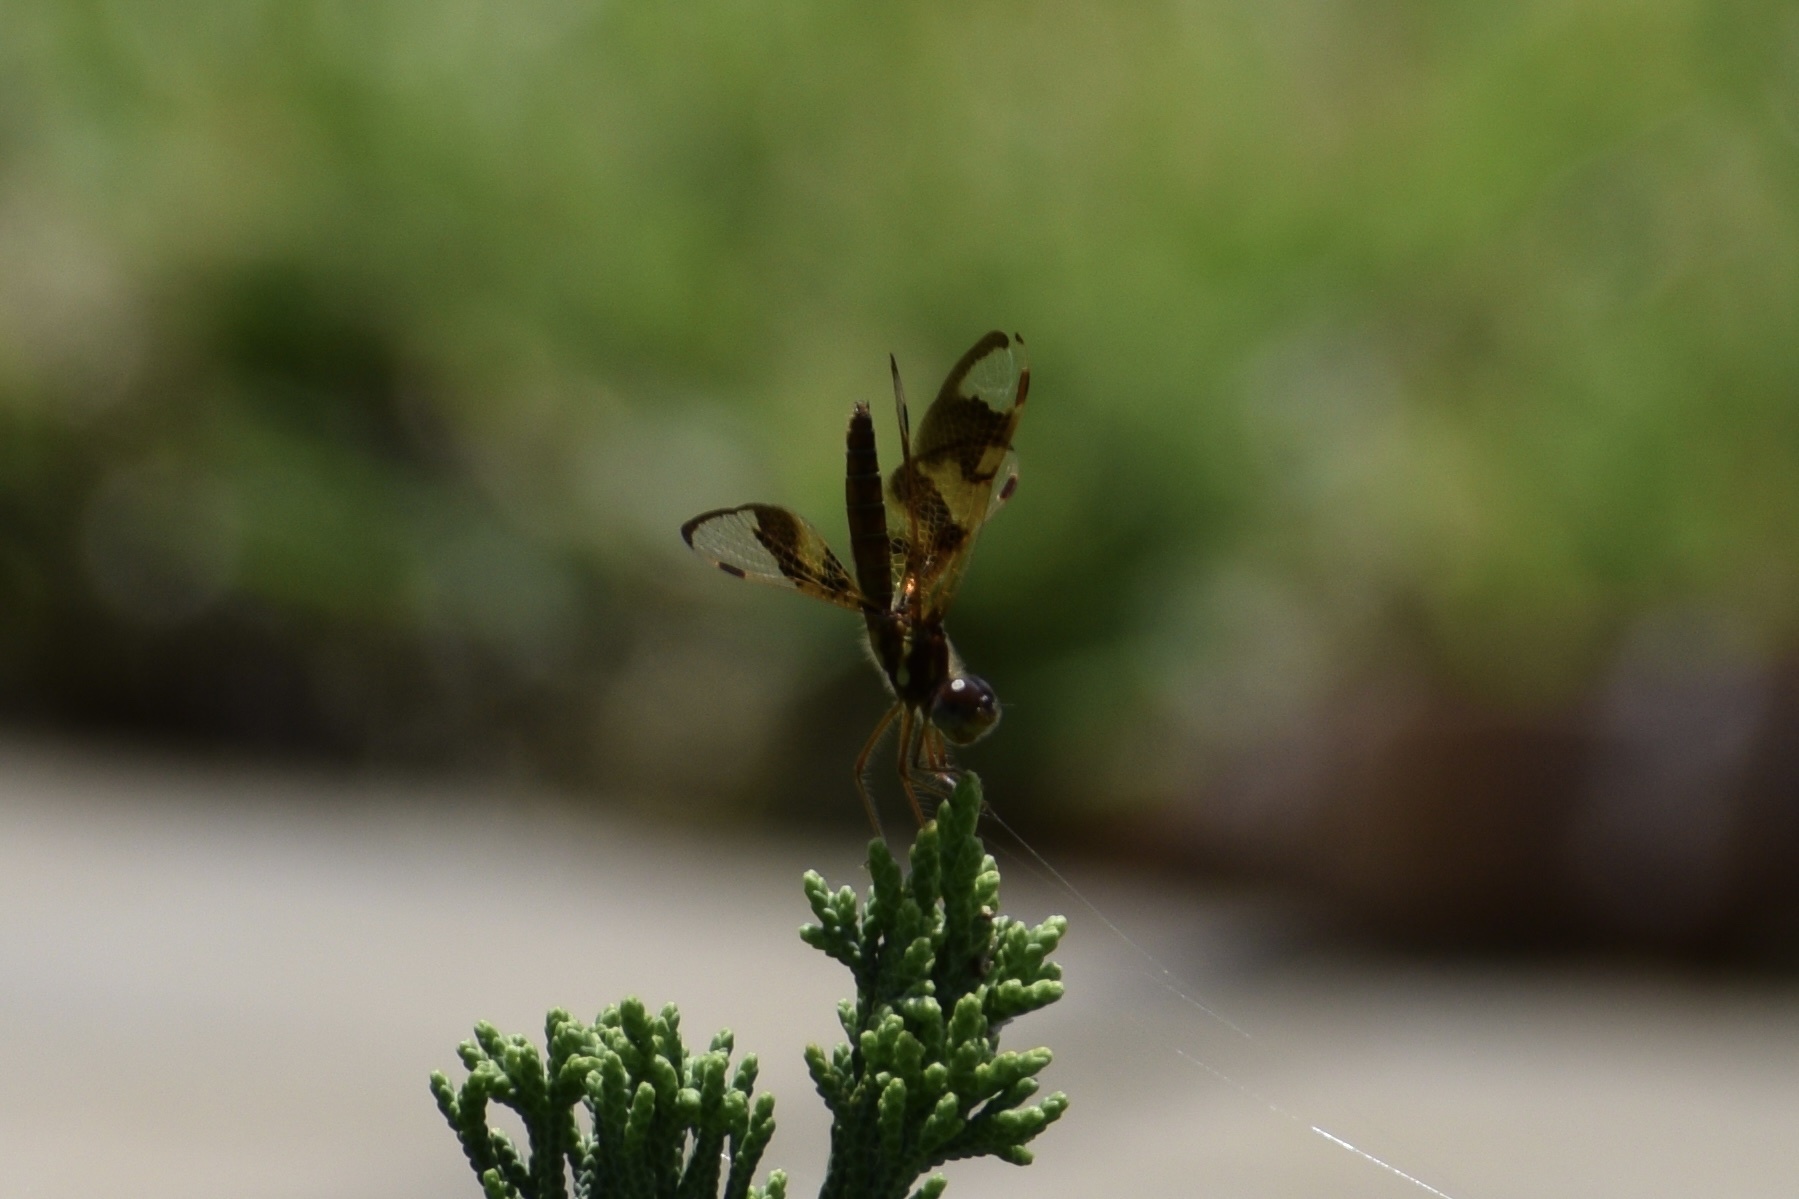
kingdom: Animalia
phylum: Arthropoda
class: Insecta
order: Odonata
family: Libellulidae
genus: Perithemis
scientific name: Perithemis tenera
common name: Eastern amberwing
